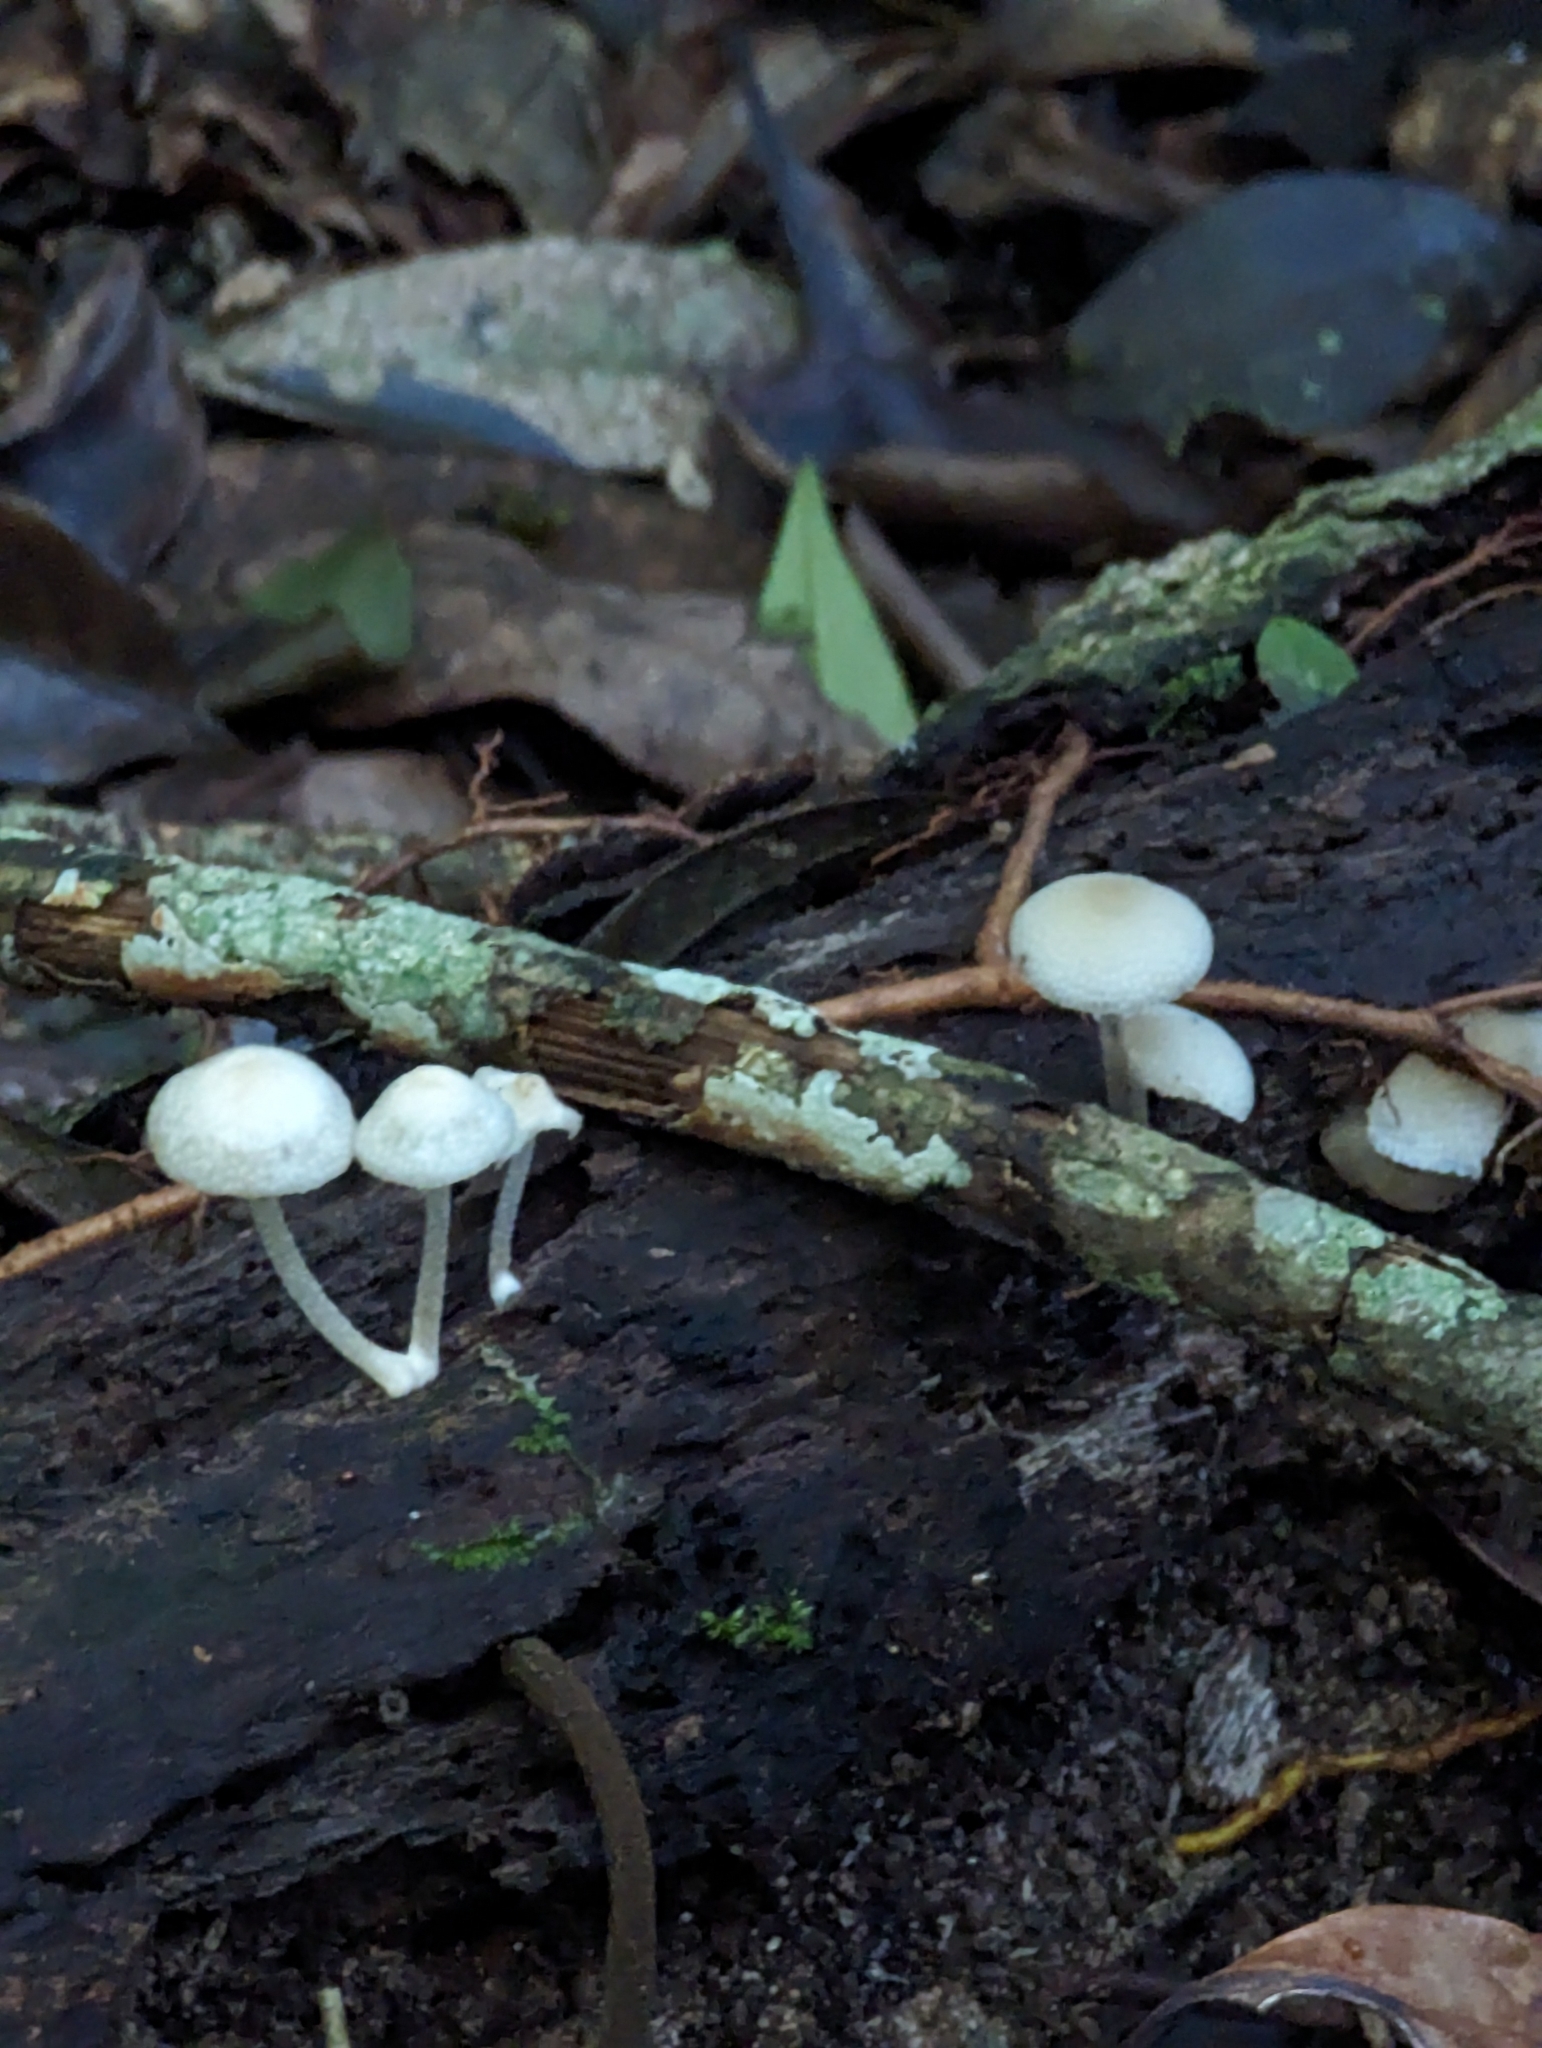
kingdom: Fungi
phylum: Basidiomycota
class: Agaricomycetes
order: Agaricales
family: Mycenaceae
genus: Filoboletus
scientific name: Filoboletus manipularis
